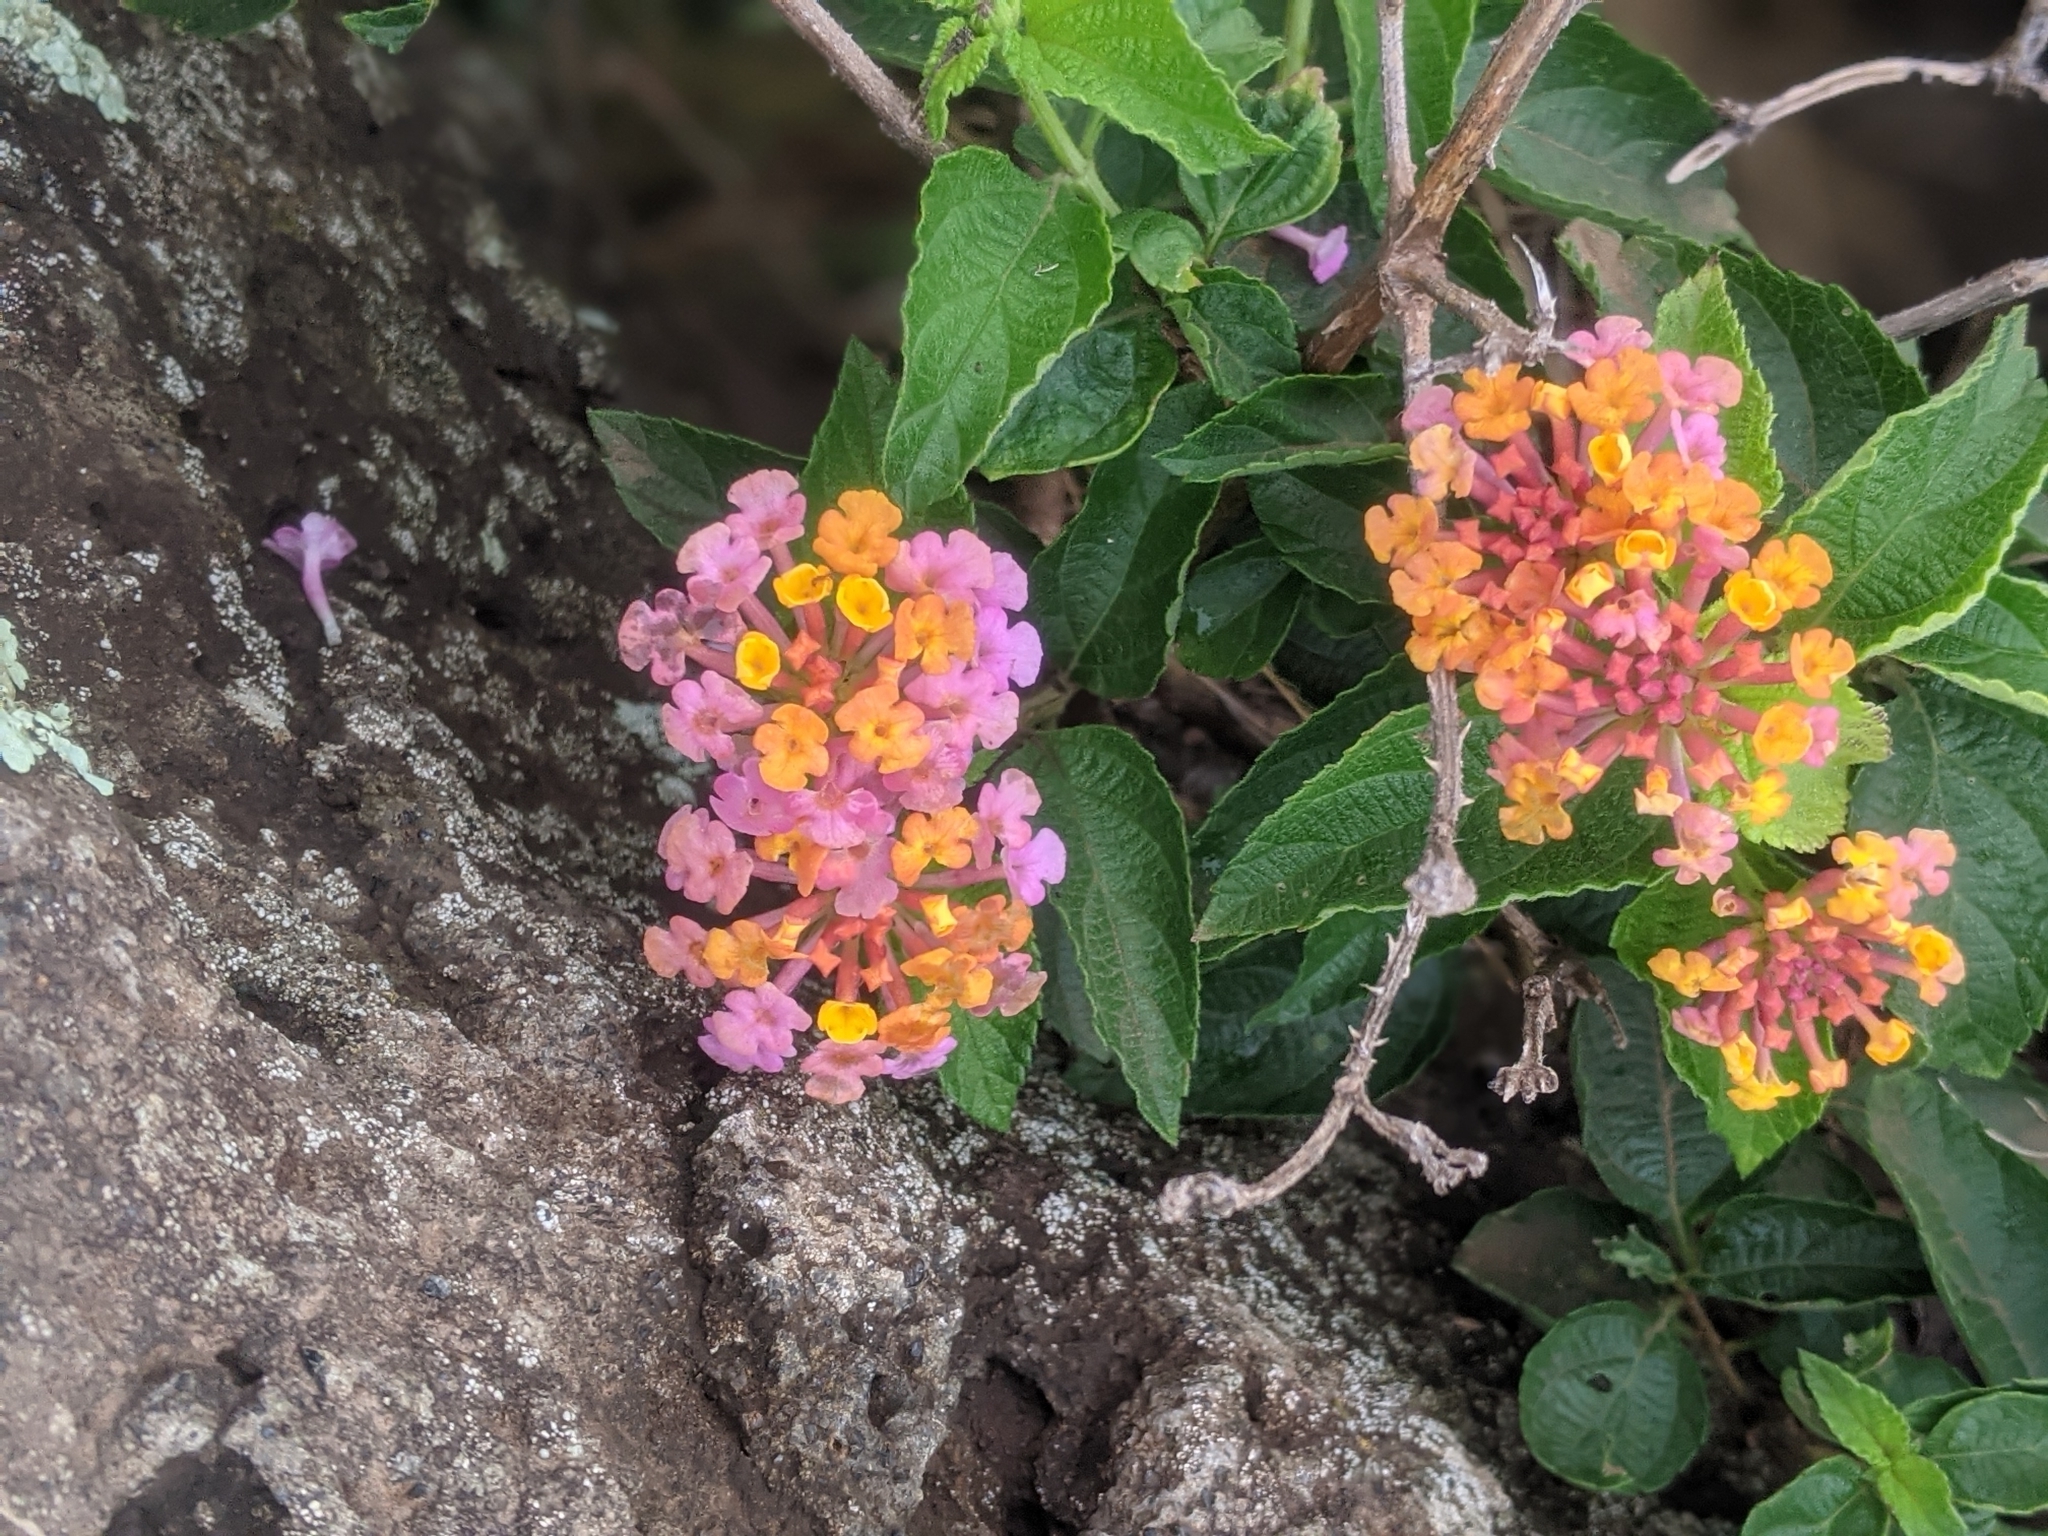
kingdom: Plantae
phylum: Tracheophyta
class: Magnoliopsida
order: Lamiales
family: Verbenaceae
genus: Lantana
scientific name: Lantana camara
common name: Lantana
